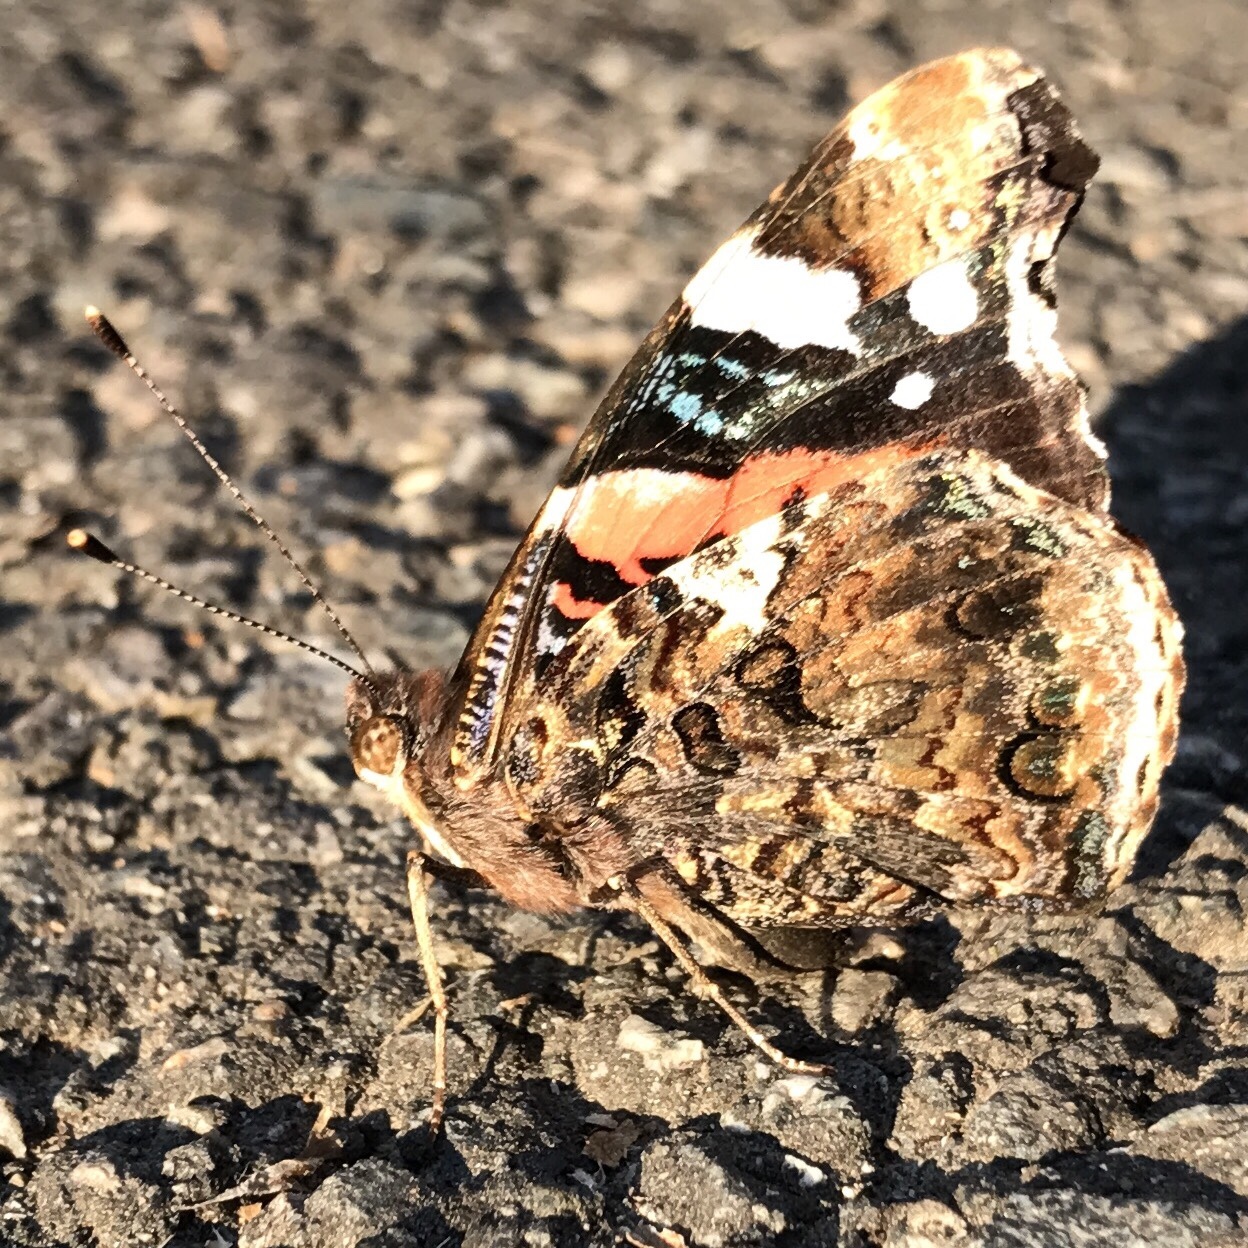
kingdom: Animalia
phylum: Arthropoda
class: Insecta
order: Lepidoptera
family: Nymphalidae
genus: Vanessa
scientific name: Vanessa atalanta
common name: Red admiral
